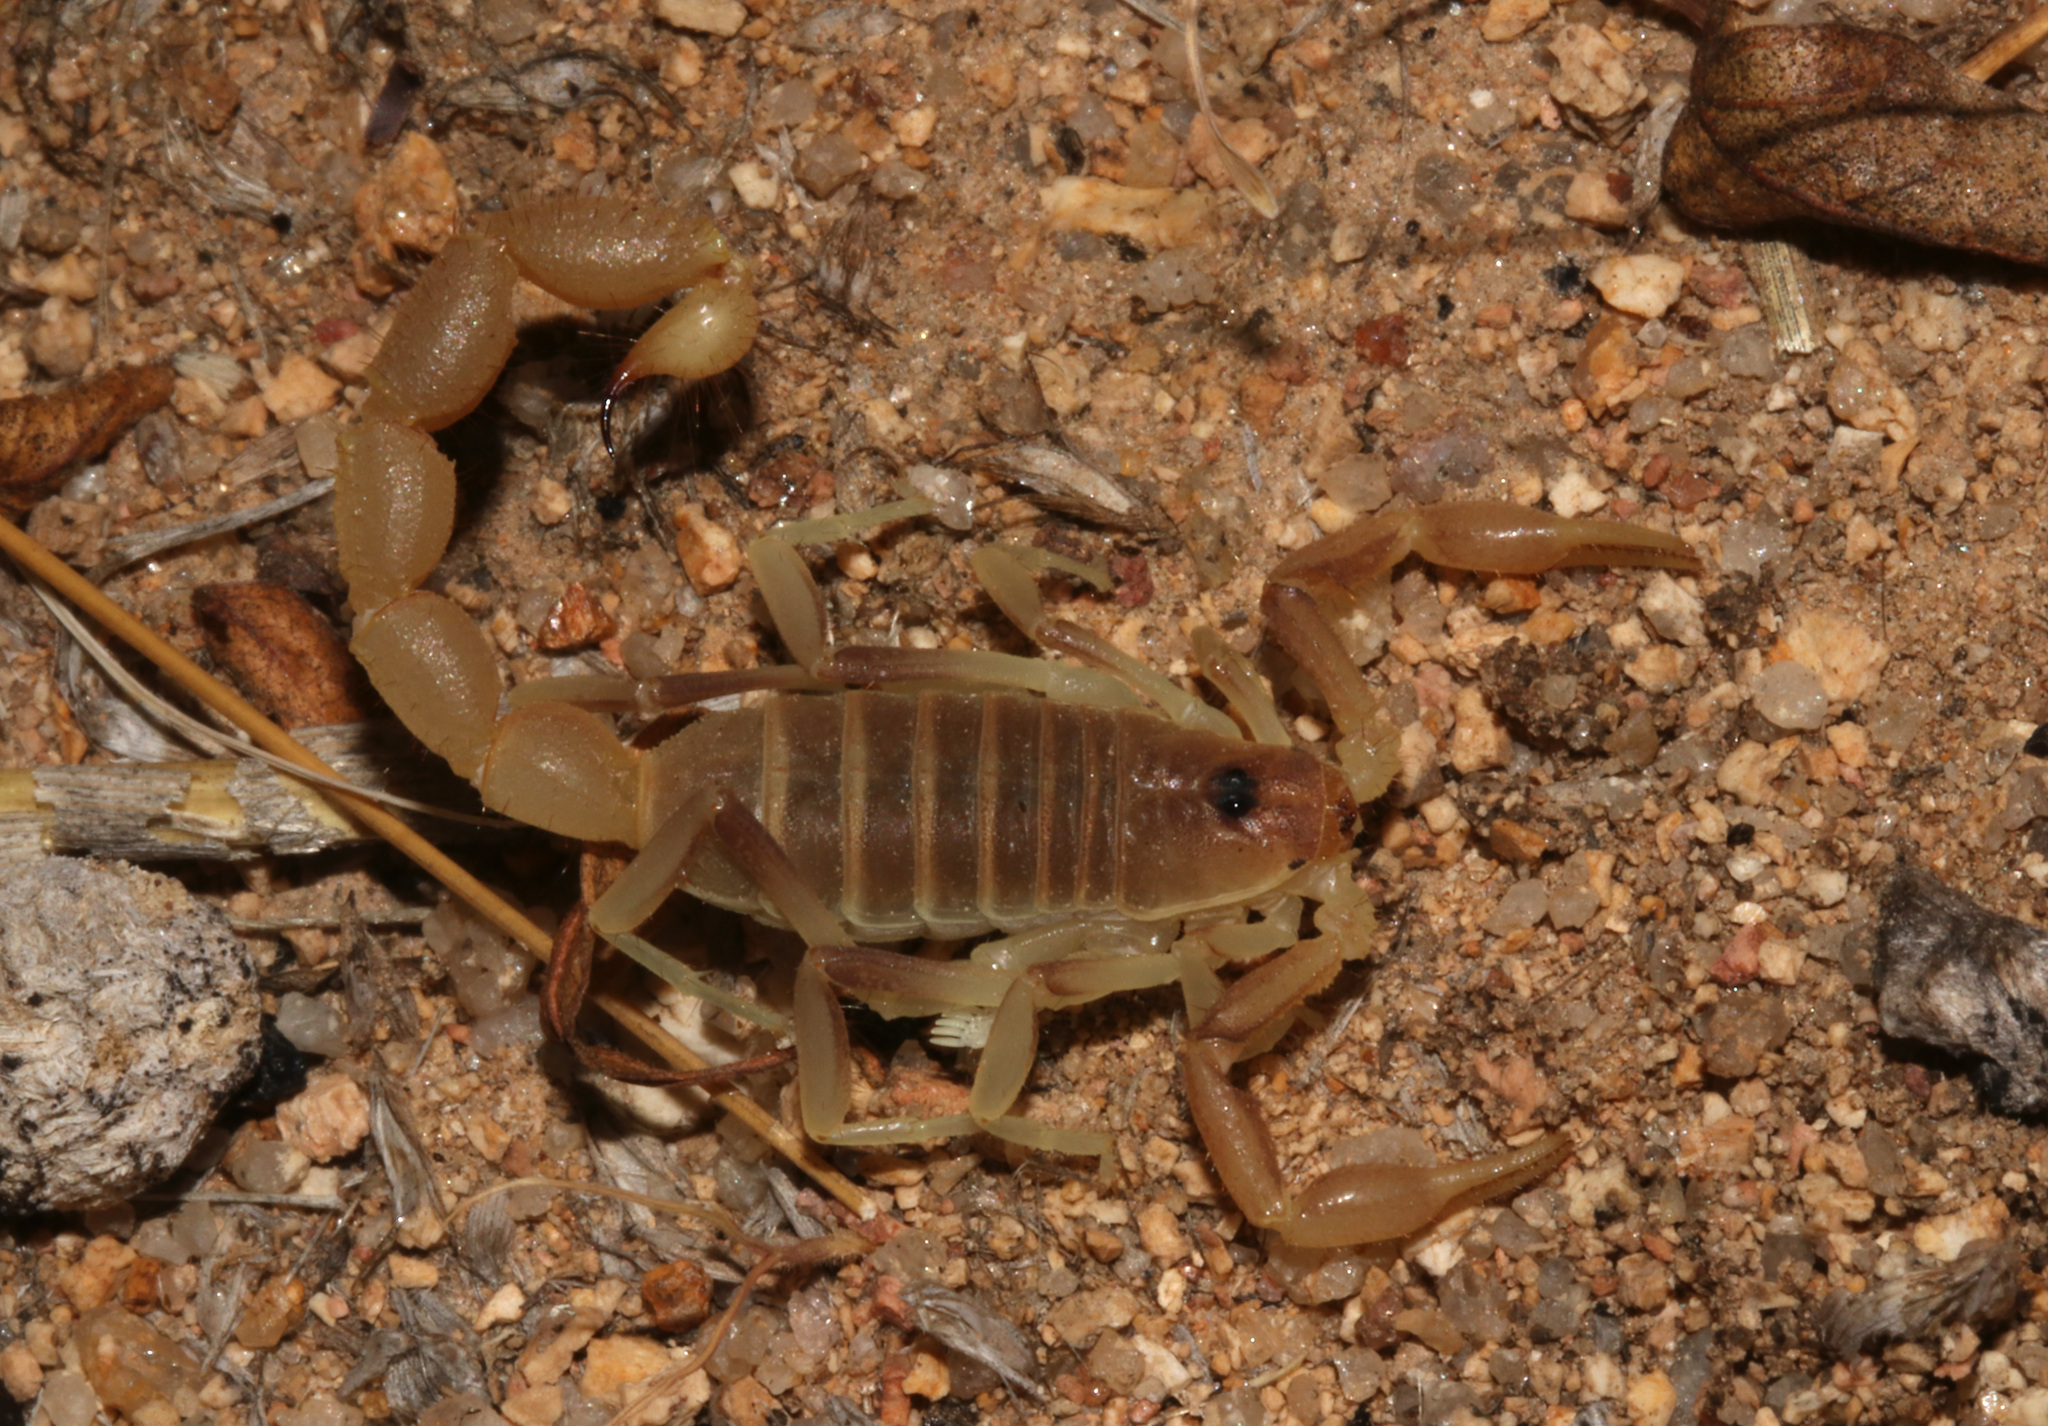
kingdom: Animalia
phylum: Arthropoda
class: Arachnida
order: Scorpiones
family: Buthidae
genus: Parabuthus
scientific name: Parabuthus brevimanus
